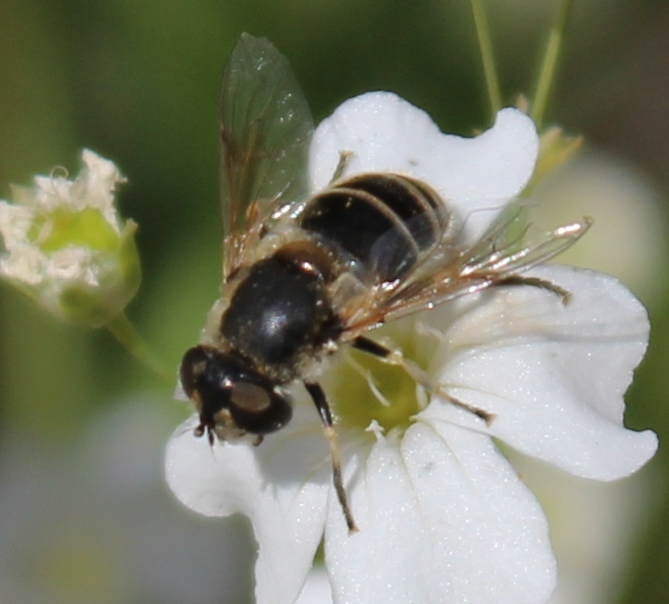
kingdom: Animalia
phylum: Arthropoda
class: Insecta
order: Diptera
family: Syrphidae
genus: Eristalis
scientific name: Eristalis hirta
